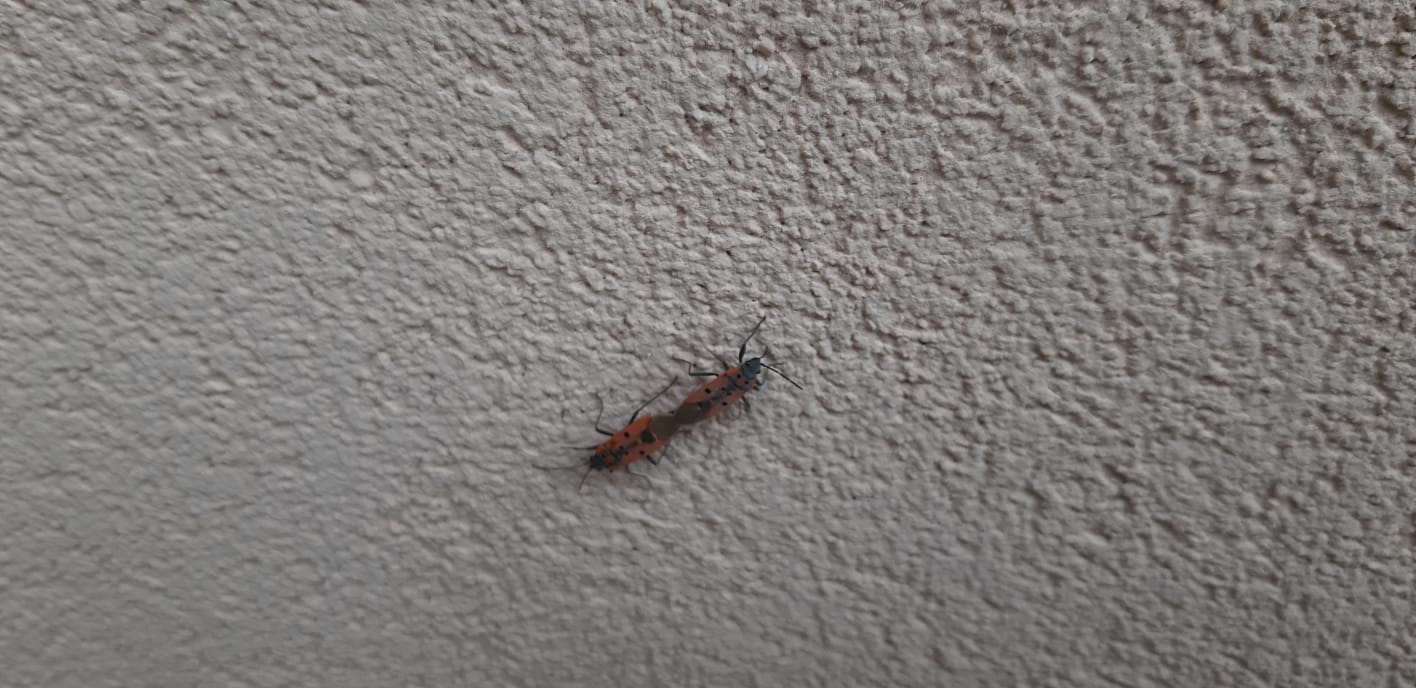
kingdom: Animalia
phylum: Arthropoda
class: Insecta
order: Hemiptera
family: Lygaeidae
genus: Lygaeus
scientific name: Lygaeus creticus
